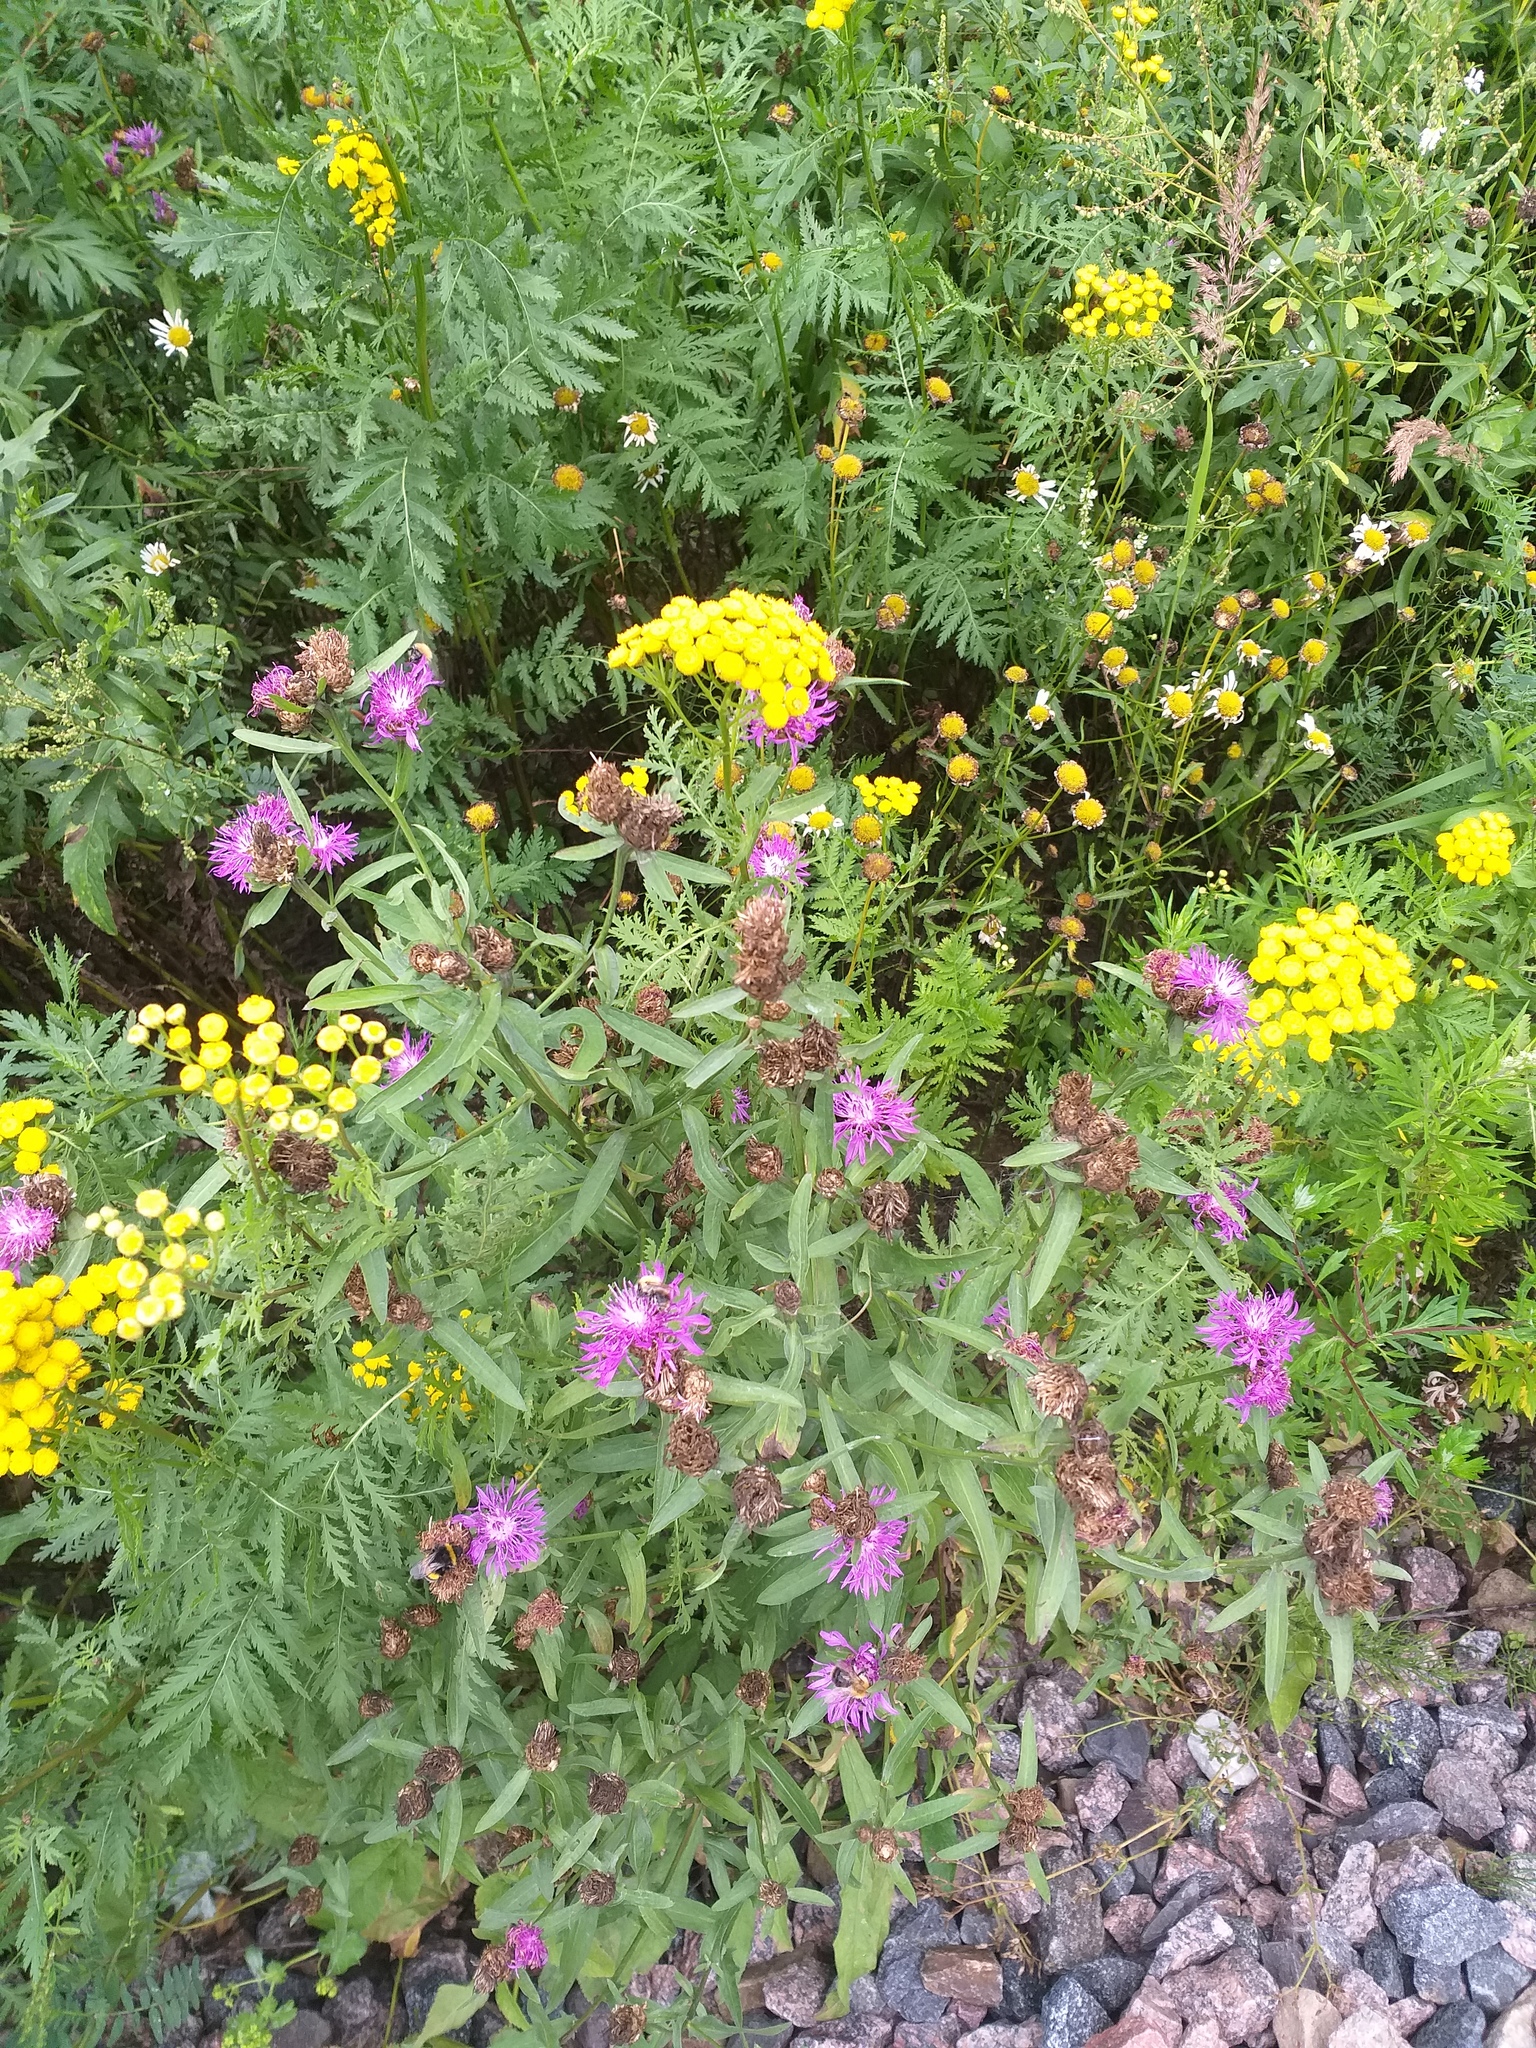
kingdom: Plantae
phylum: Tracheophyta
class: Magnoliopsida
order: Asterales
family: Asteraceae
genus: Centaurea
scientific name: Centaurea jacea
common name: Brown knapweed
